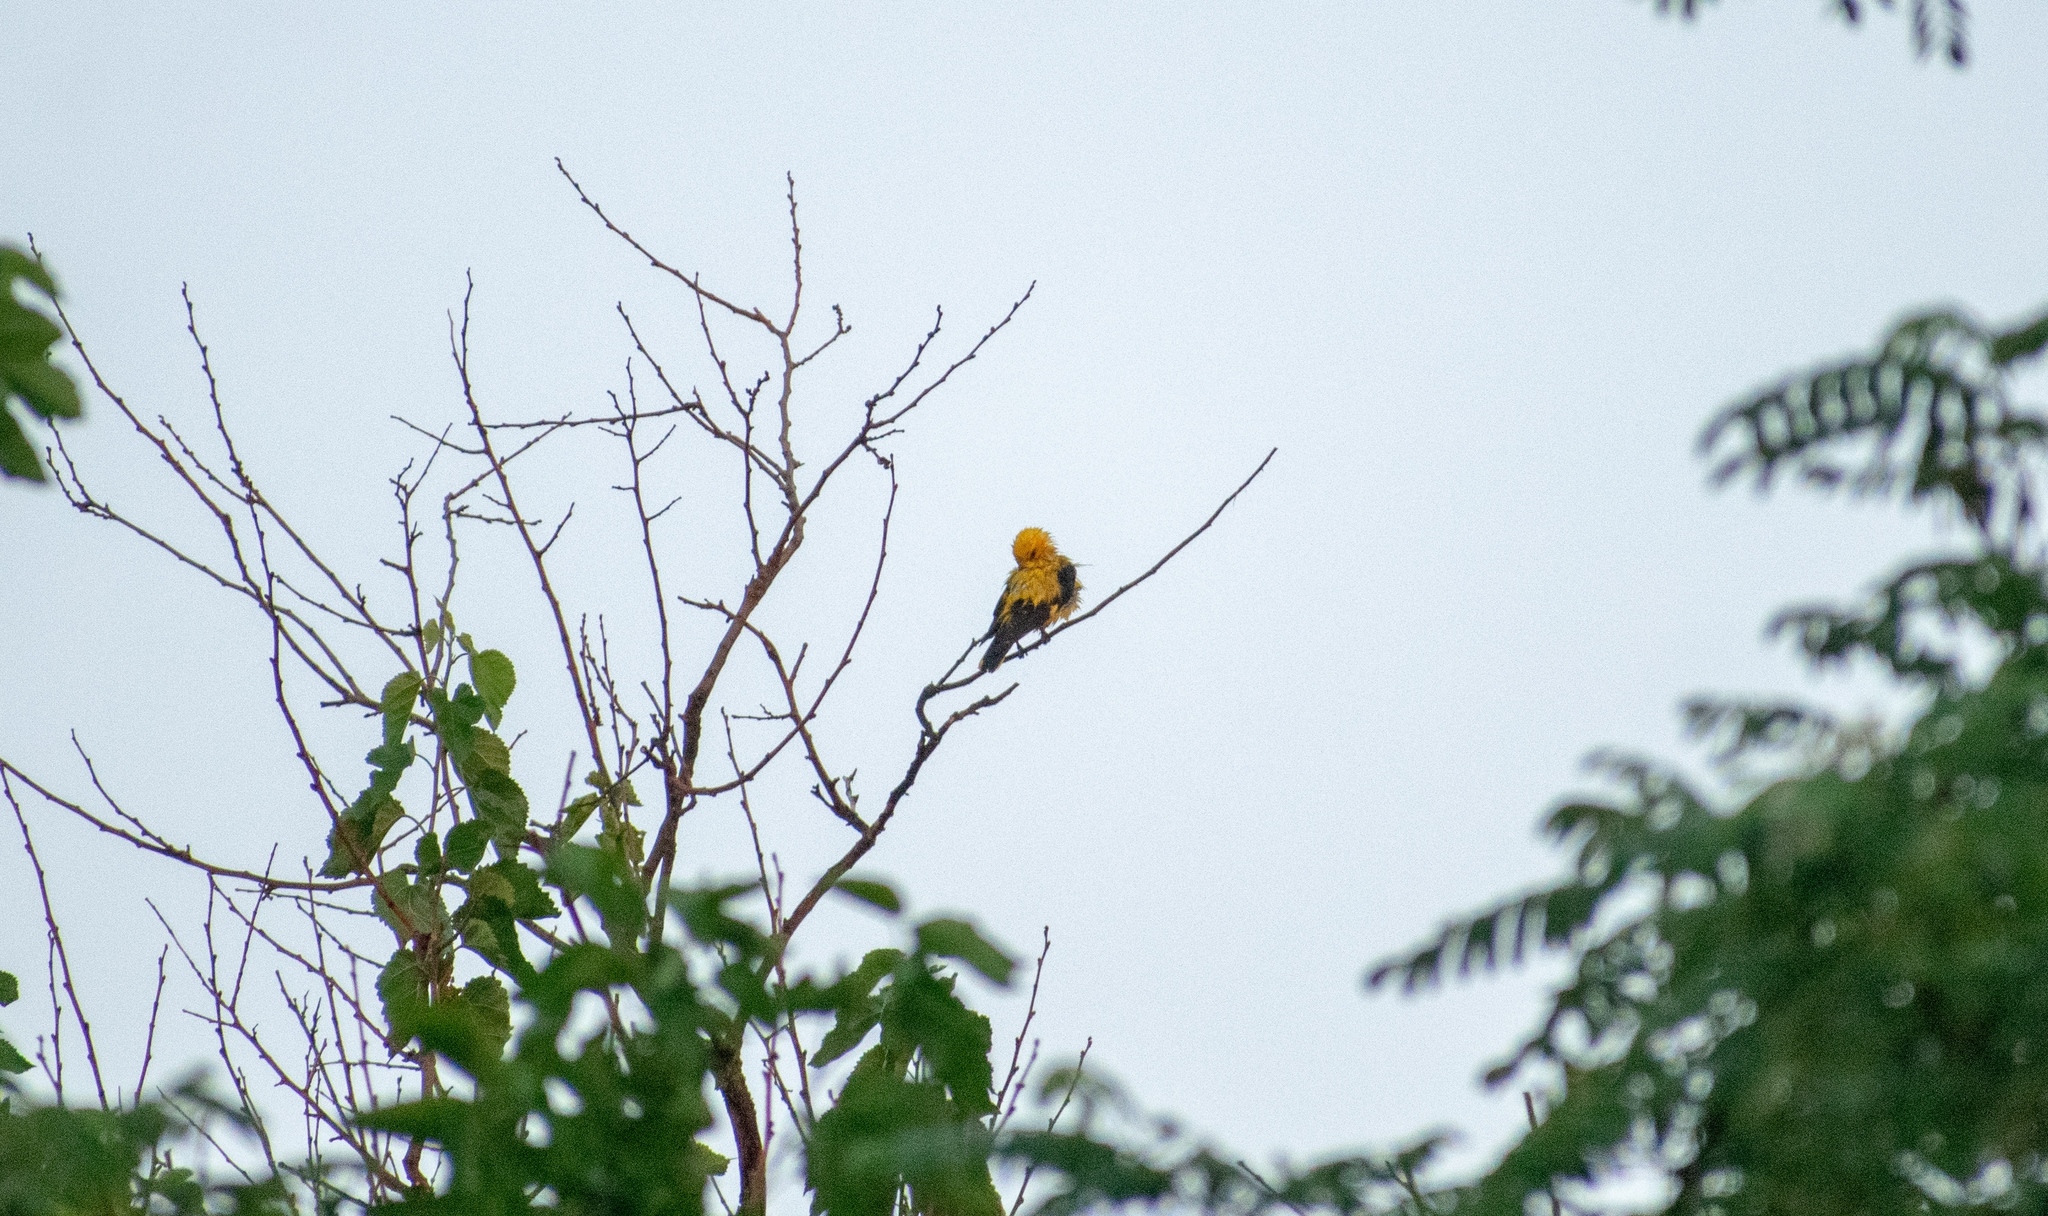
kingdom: Animalia
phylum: Chordata
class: Aves
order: Passeriformes
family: Oriolidae
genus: Oriolus
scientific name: Oriolus oriolus
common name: Eurasian golden oriole
